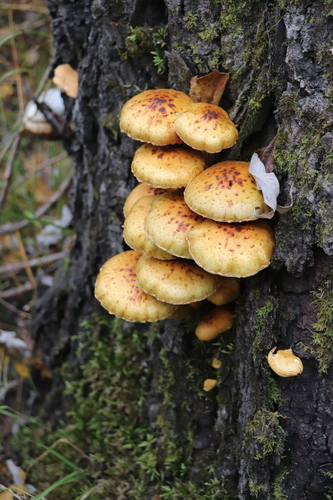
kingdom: Fungi
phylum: Basidiomycota
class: Agaricomycetes
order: Agaricales
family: Strophariaceae
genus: Pholiota
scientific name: Pholiota
